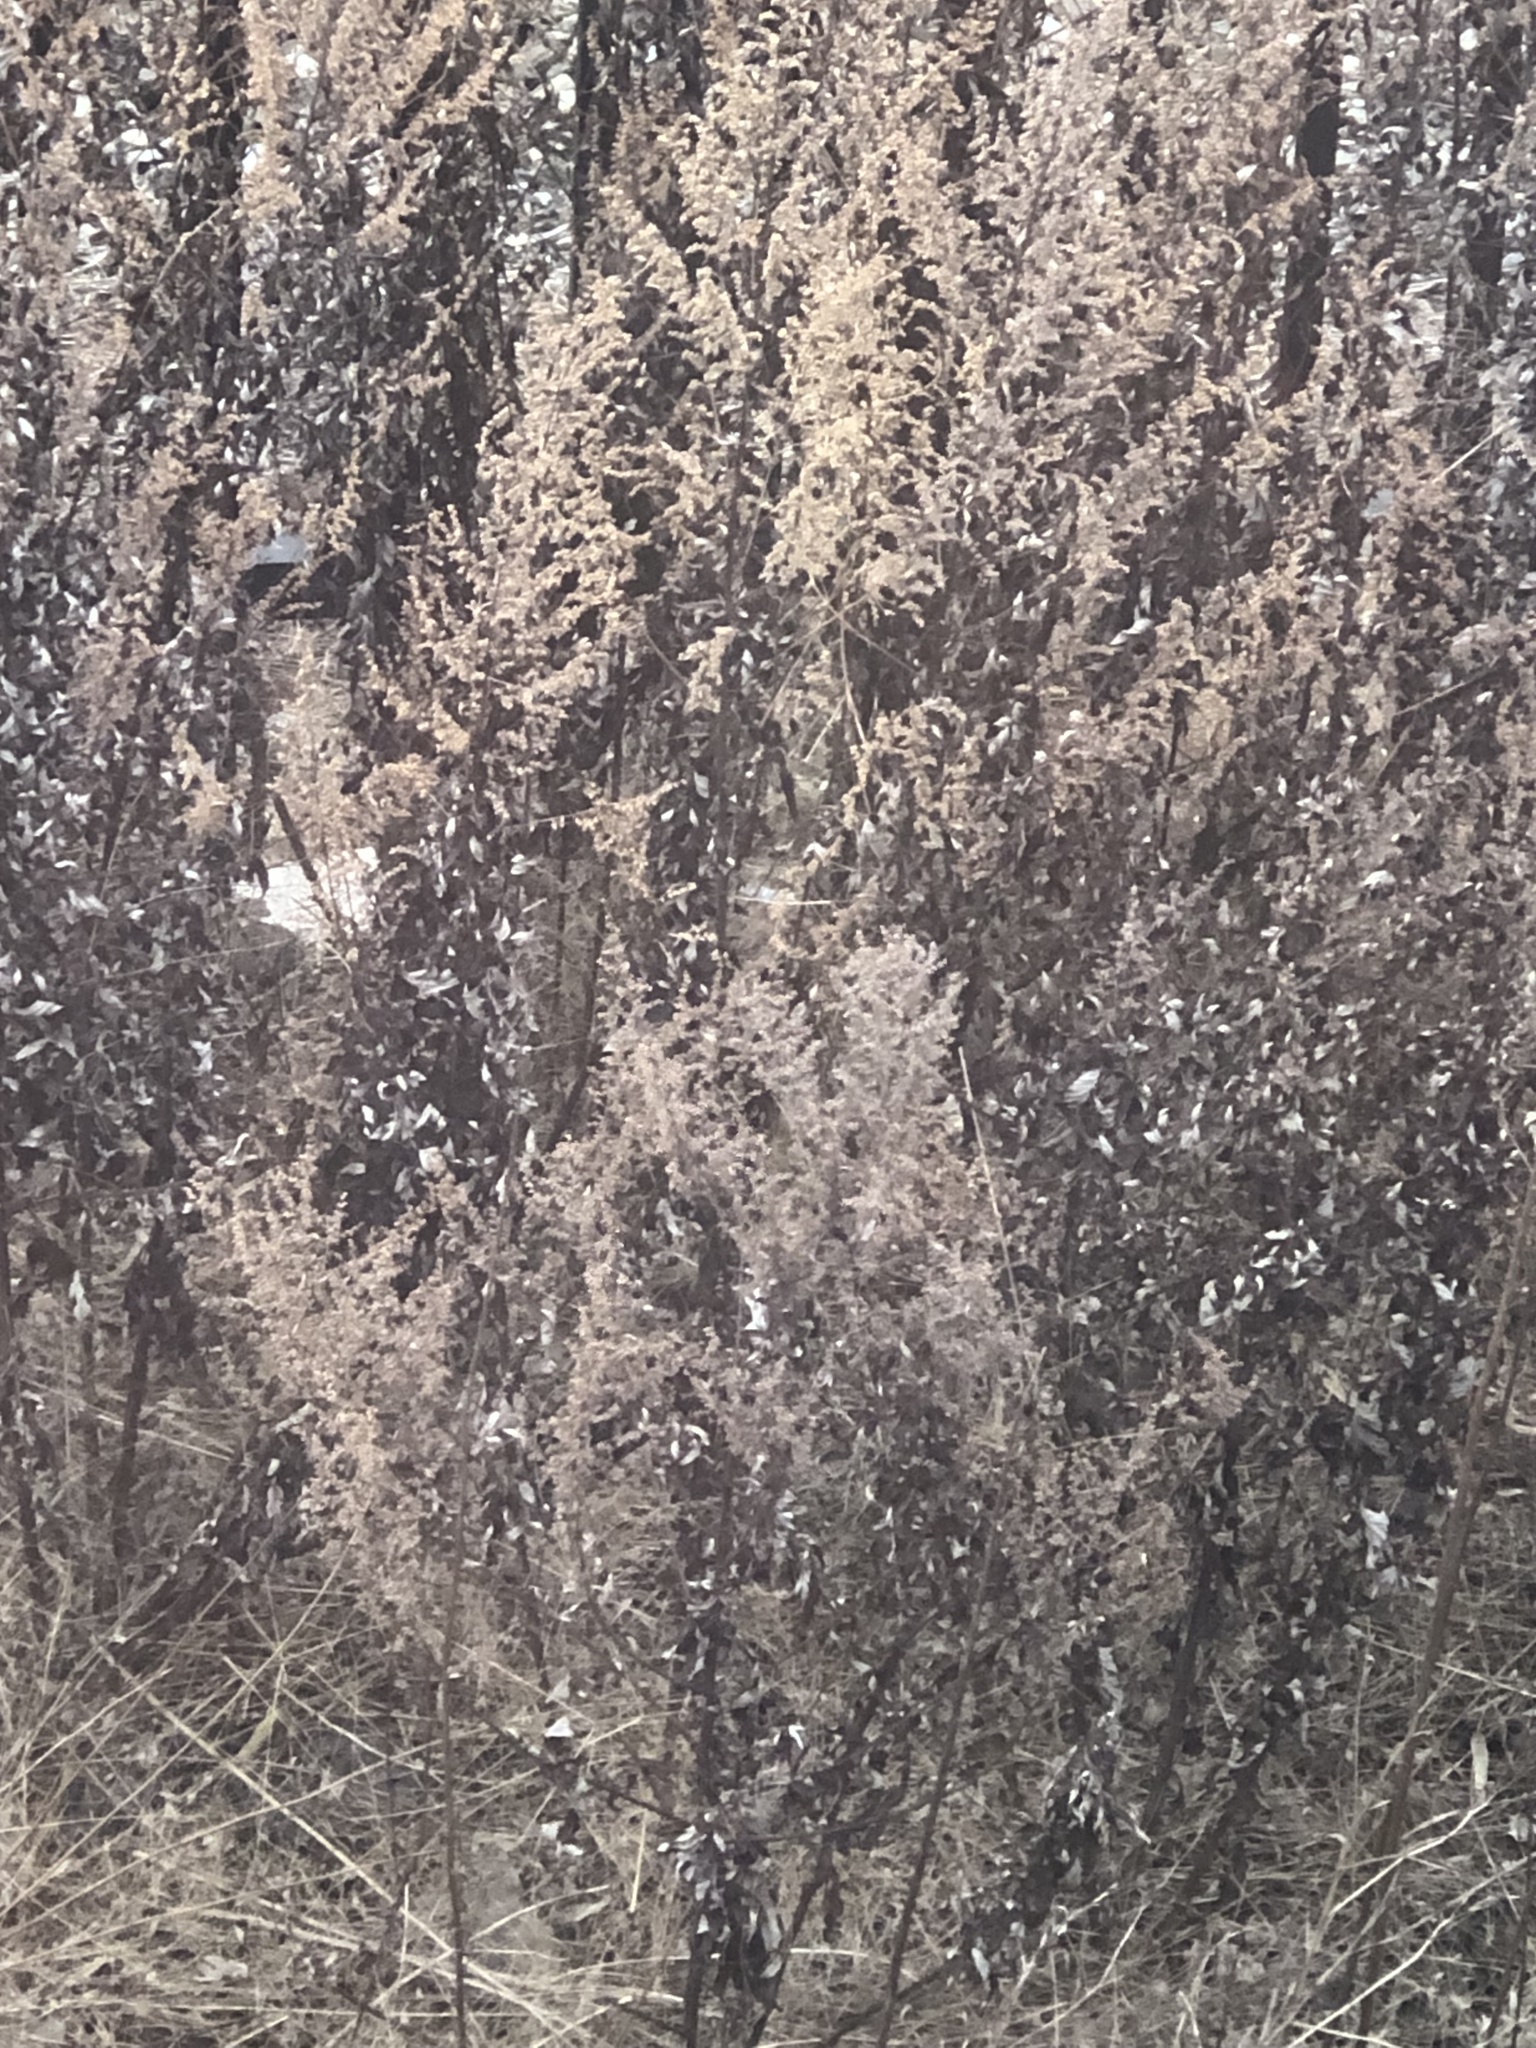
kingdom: Plantae
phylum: Tracheophyta
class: Magnoliopsida
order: Asterales
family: Asteraceae
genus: Artemisia
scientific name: Artemisia vulgaris
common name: Mugwort
